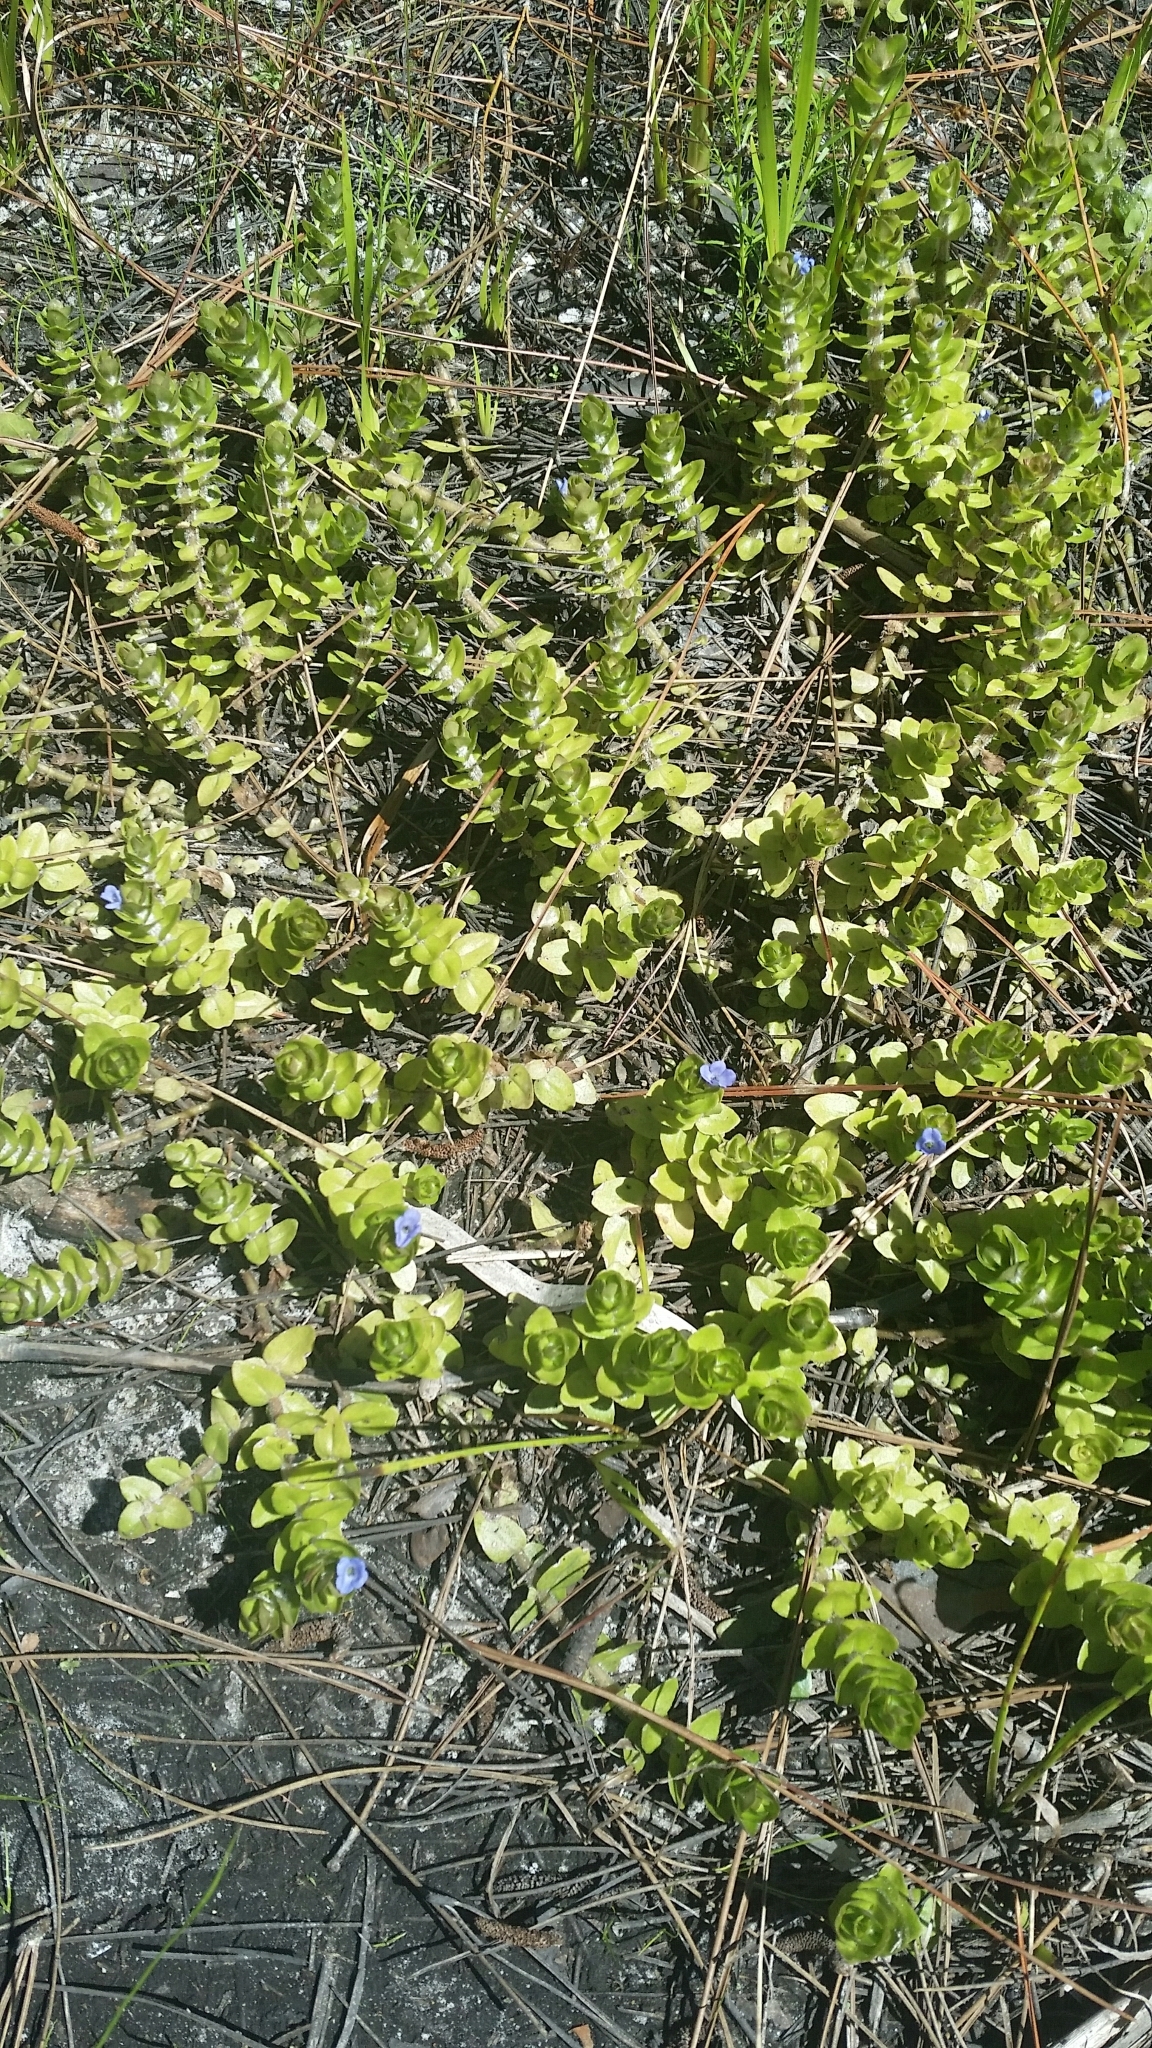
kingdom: Plantae
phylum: Tracheophyta
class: Magnoliopsida
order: Lamiales
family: Plantaginaceae
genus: Bacopa
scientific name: Bacopa caroliniana
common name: Lemon bacopa
